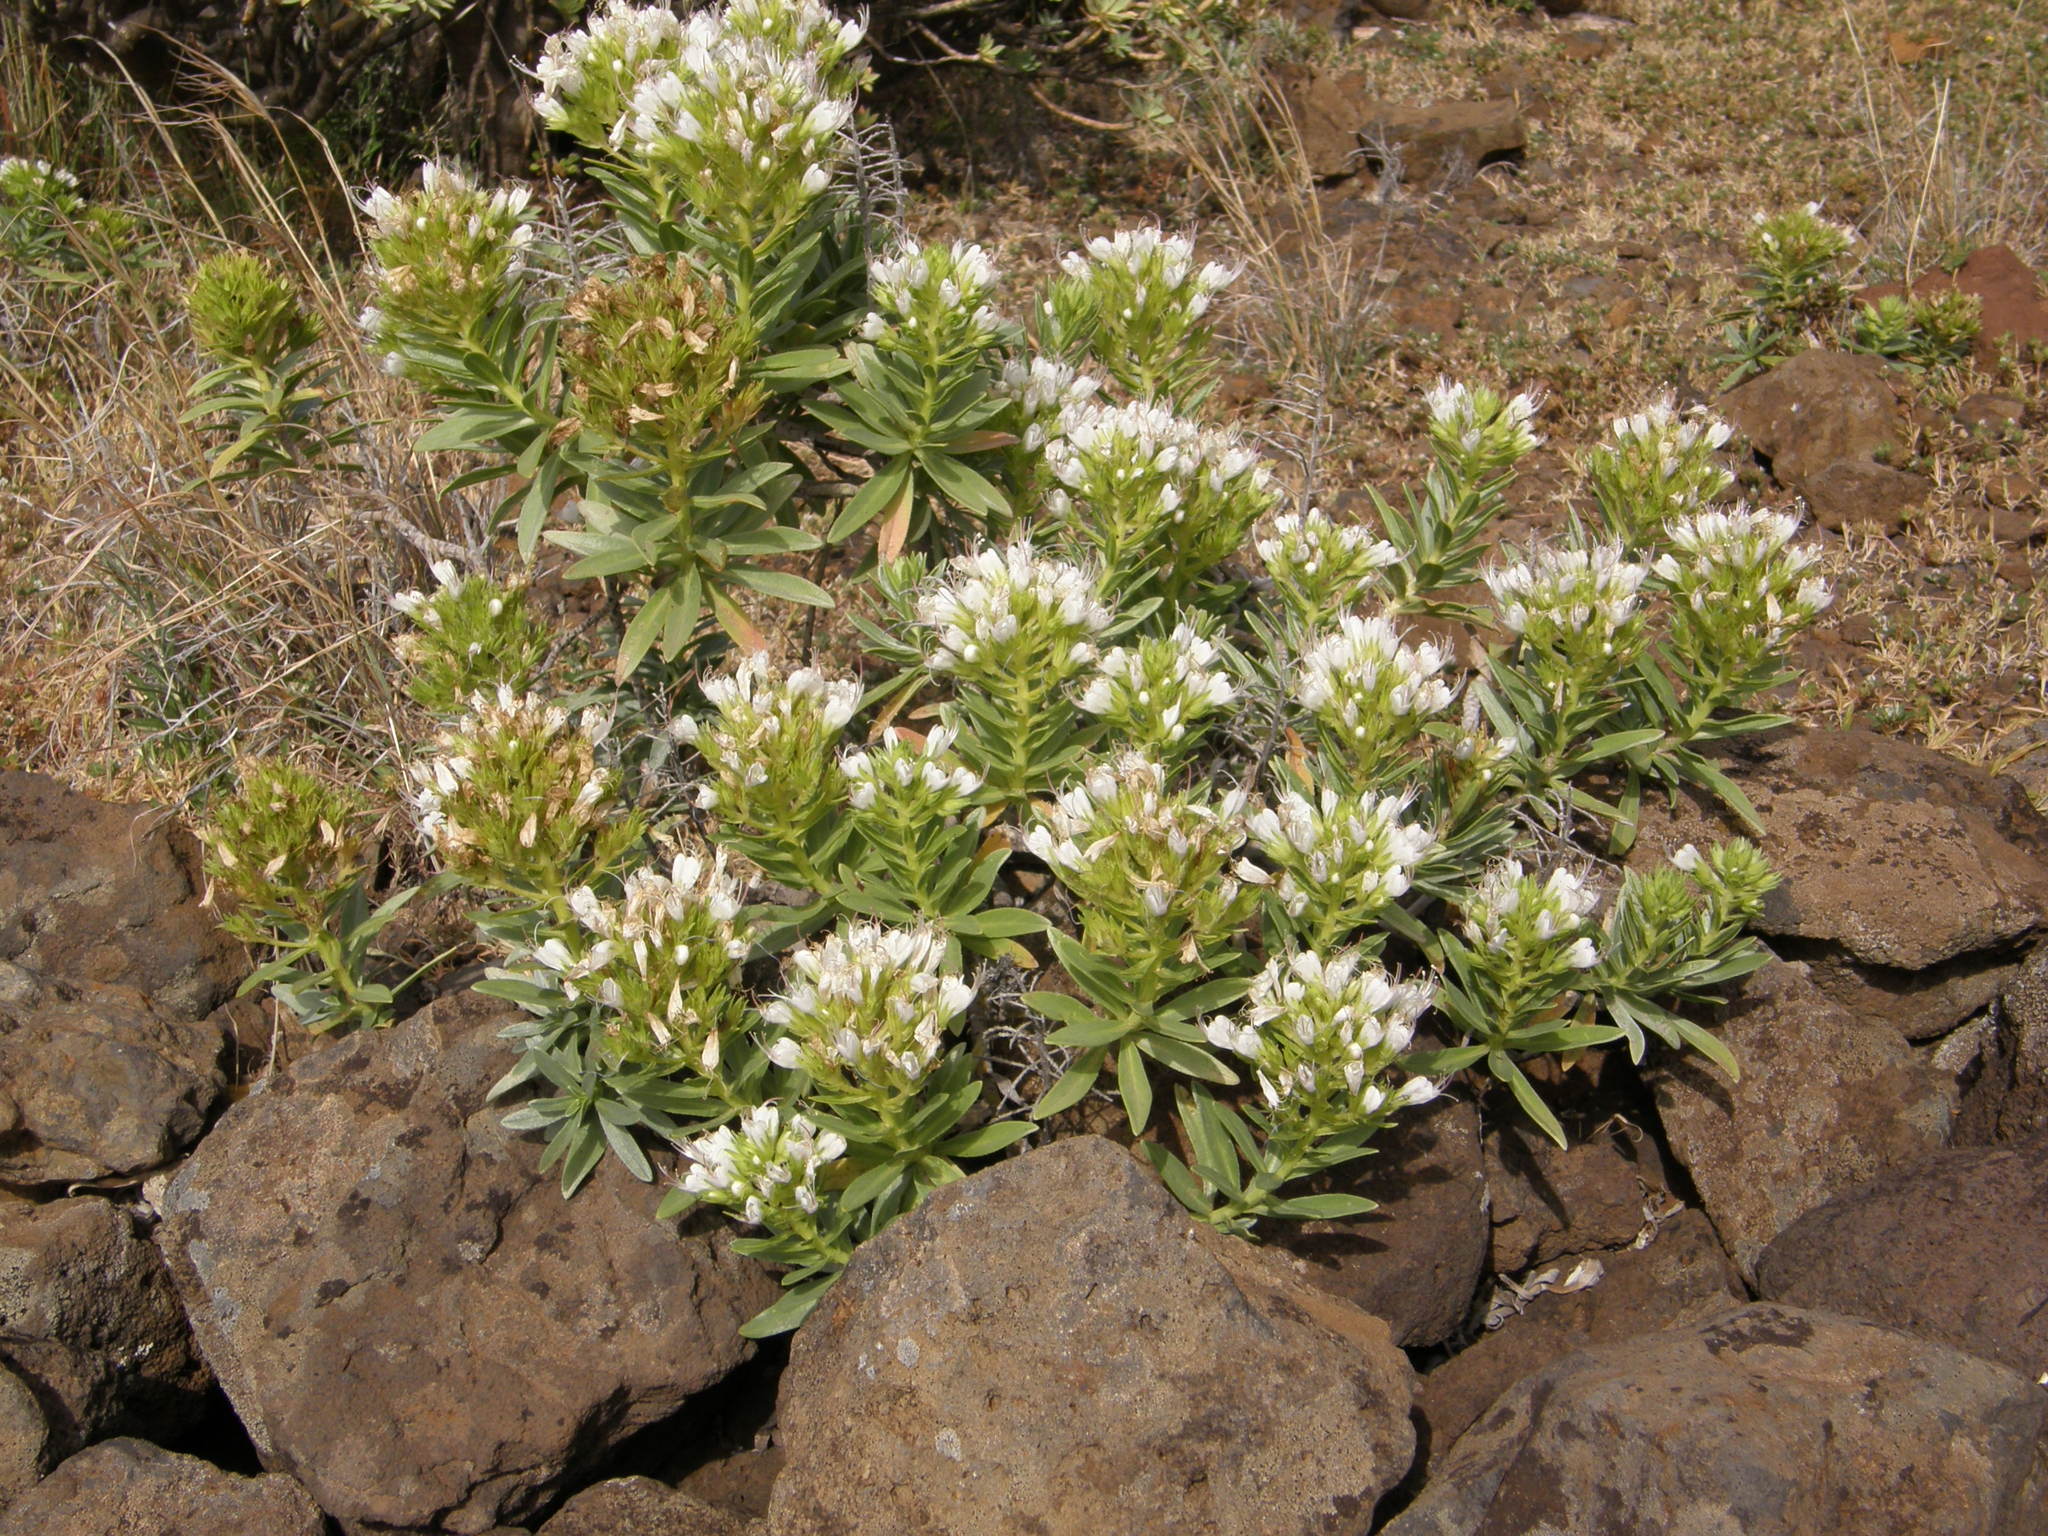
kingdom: Plantae
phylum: Tracheophyta
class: Magnoliopsida
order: Boraginales
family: Boraginaceae
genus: Echium
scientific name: Echium brevirame
